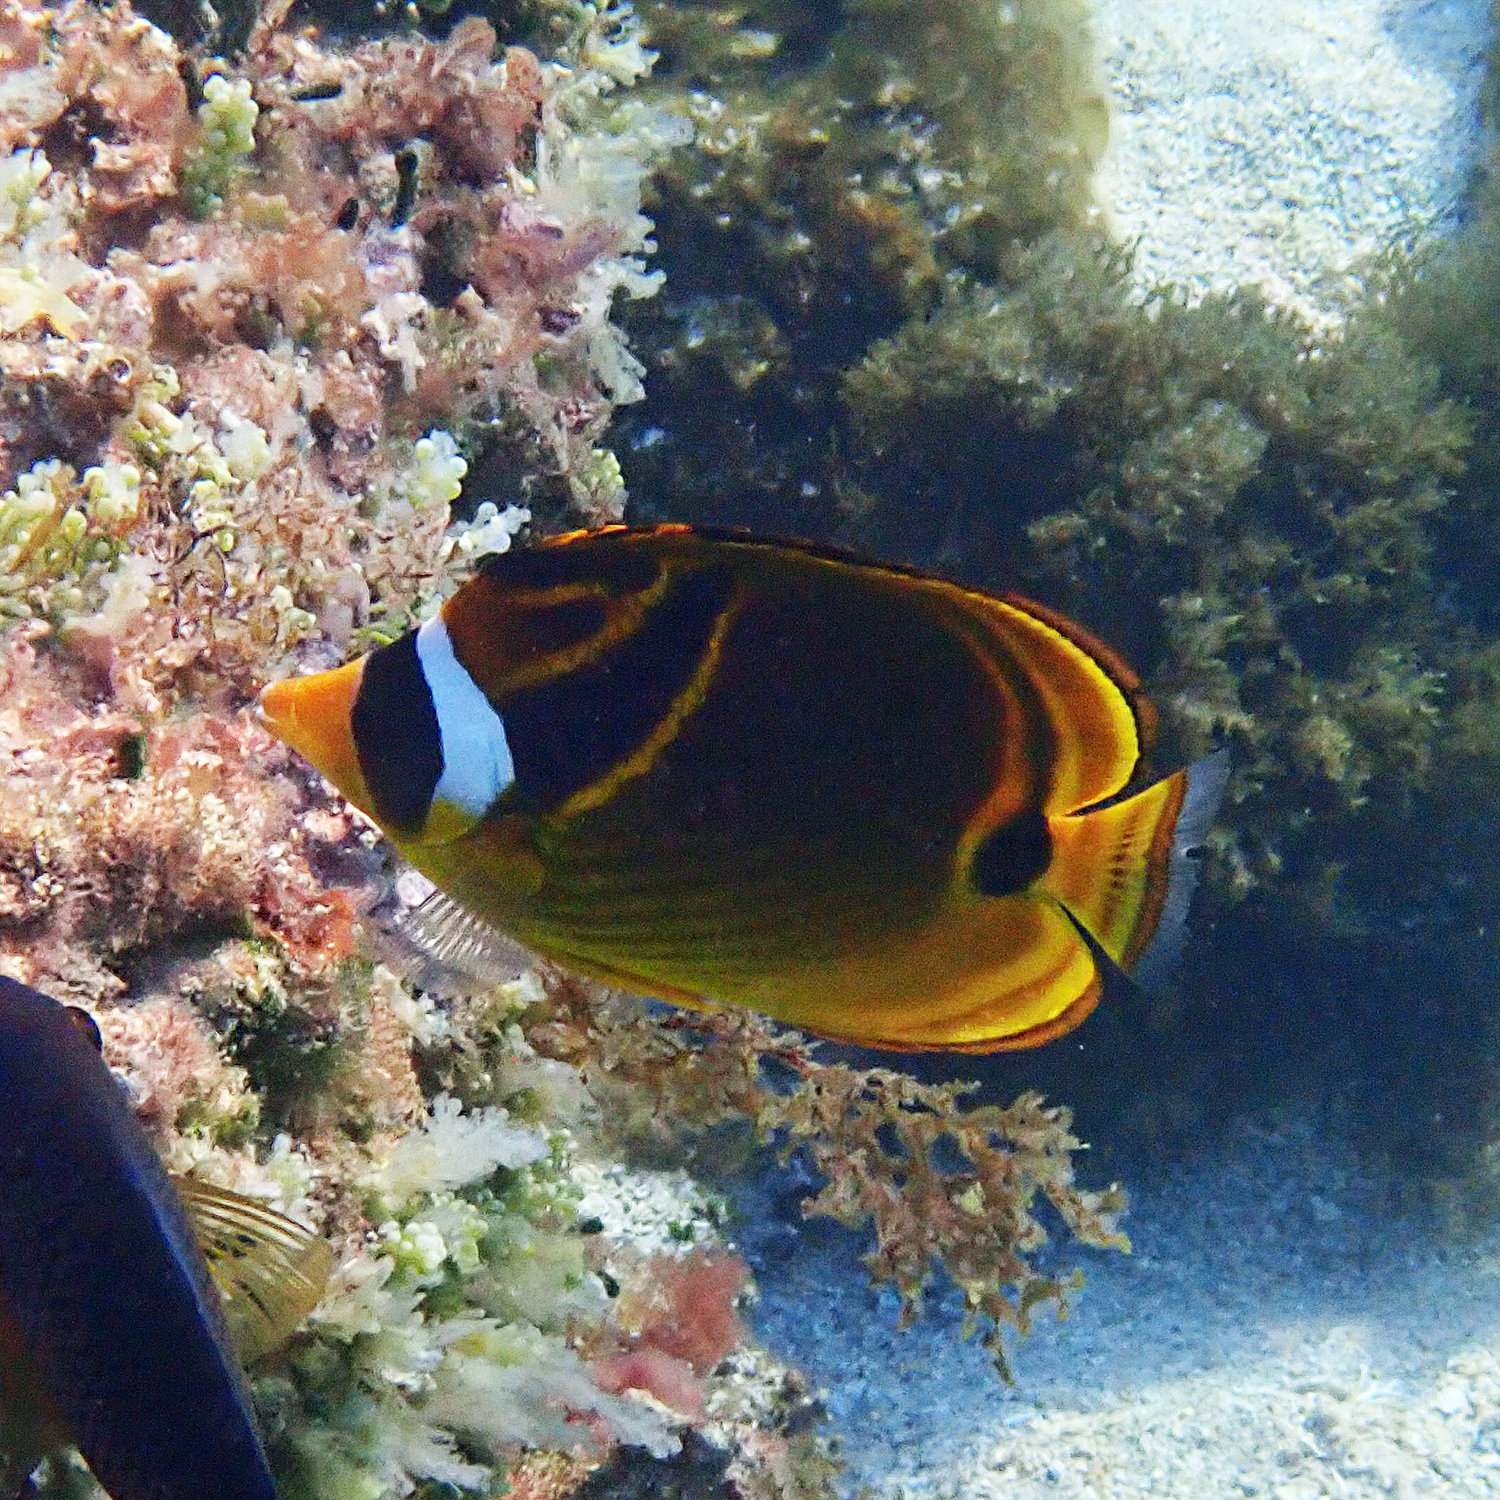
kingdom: Animalia
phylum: Chordata
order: Perciformes
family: Chaetodontidae
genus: Chaetodon
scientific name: Chaetodon lunula
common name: Raccoon butterflyfish
